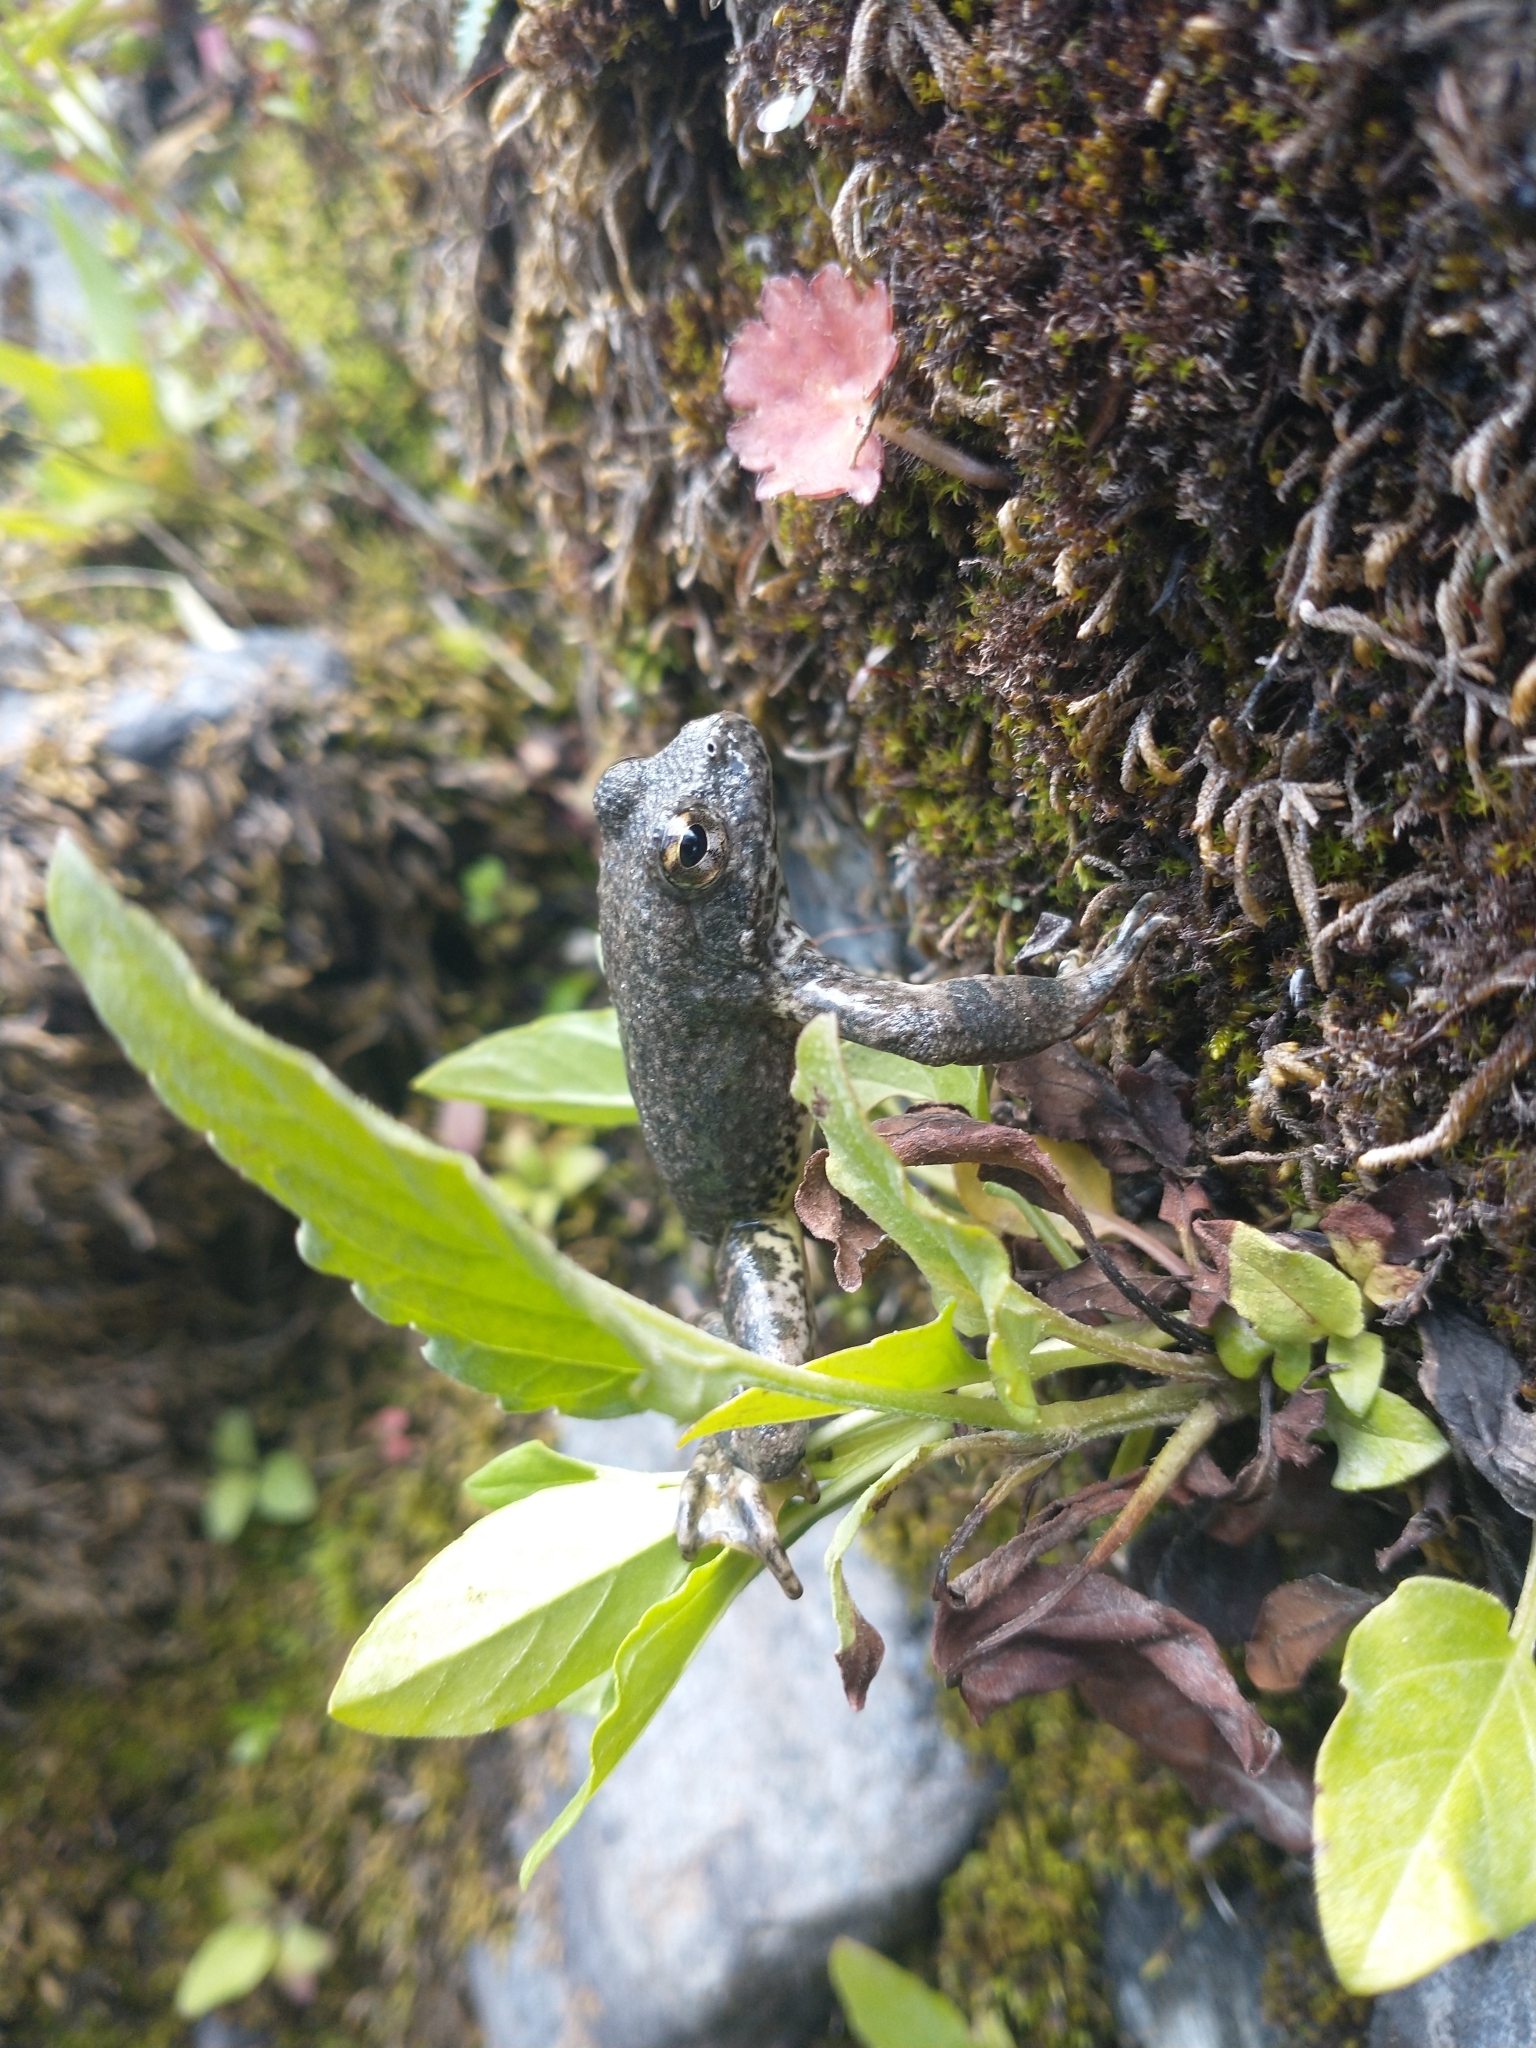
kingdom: Animalia
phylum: Chordata
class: Amphibia
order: Anura
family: Ranidae
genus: Rana
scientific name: Rana boylii
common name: Foothill yellow-legged frog
